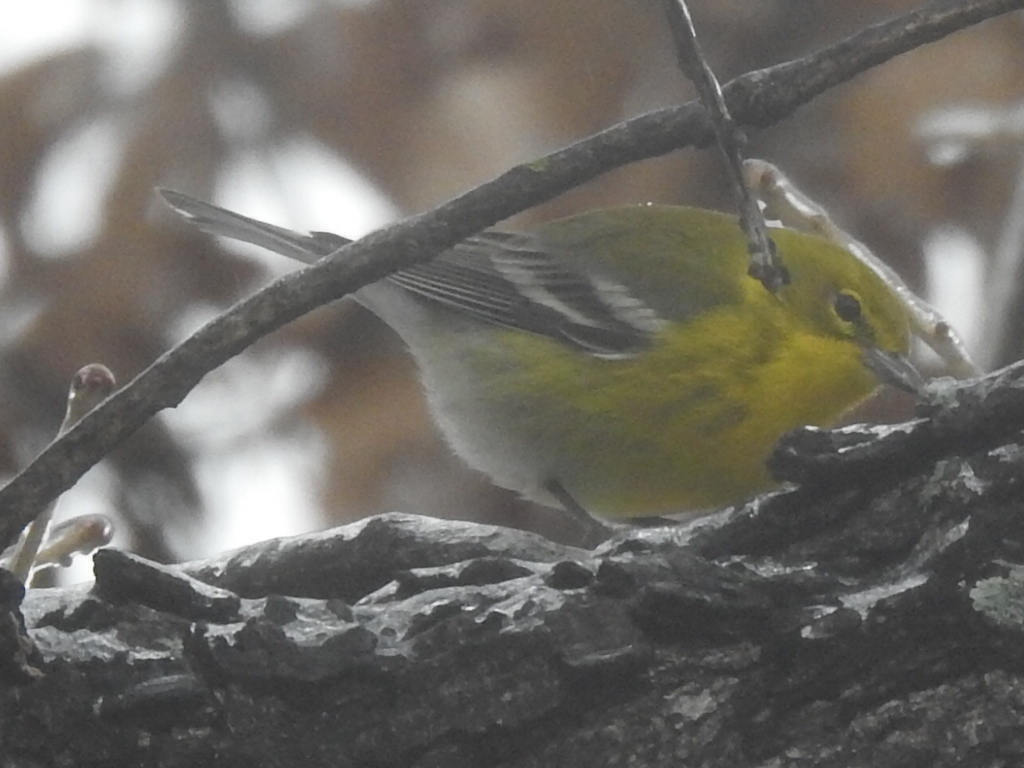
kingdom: Animalia
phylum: Chordata
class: Aves
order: Passeriformes
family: Parulidae
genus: Setophaga
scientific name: Setophaga pinus
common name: Pine warbler
